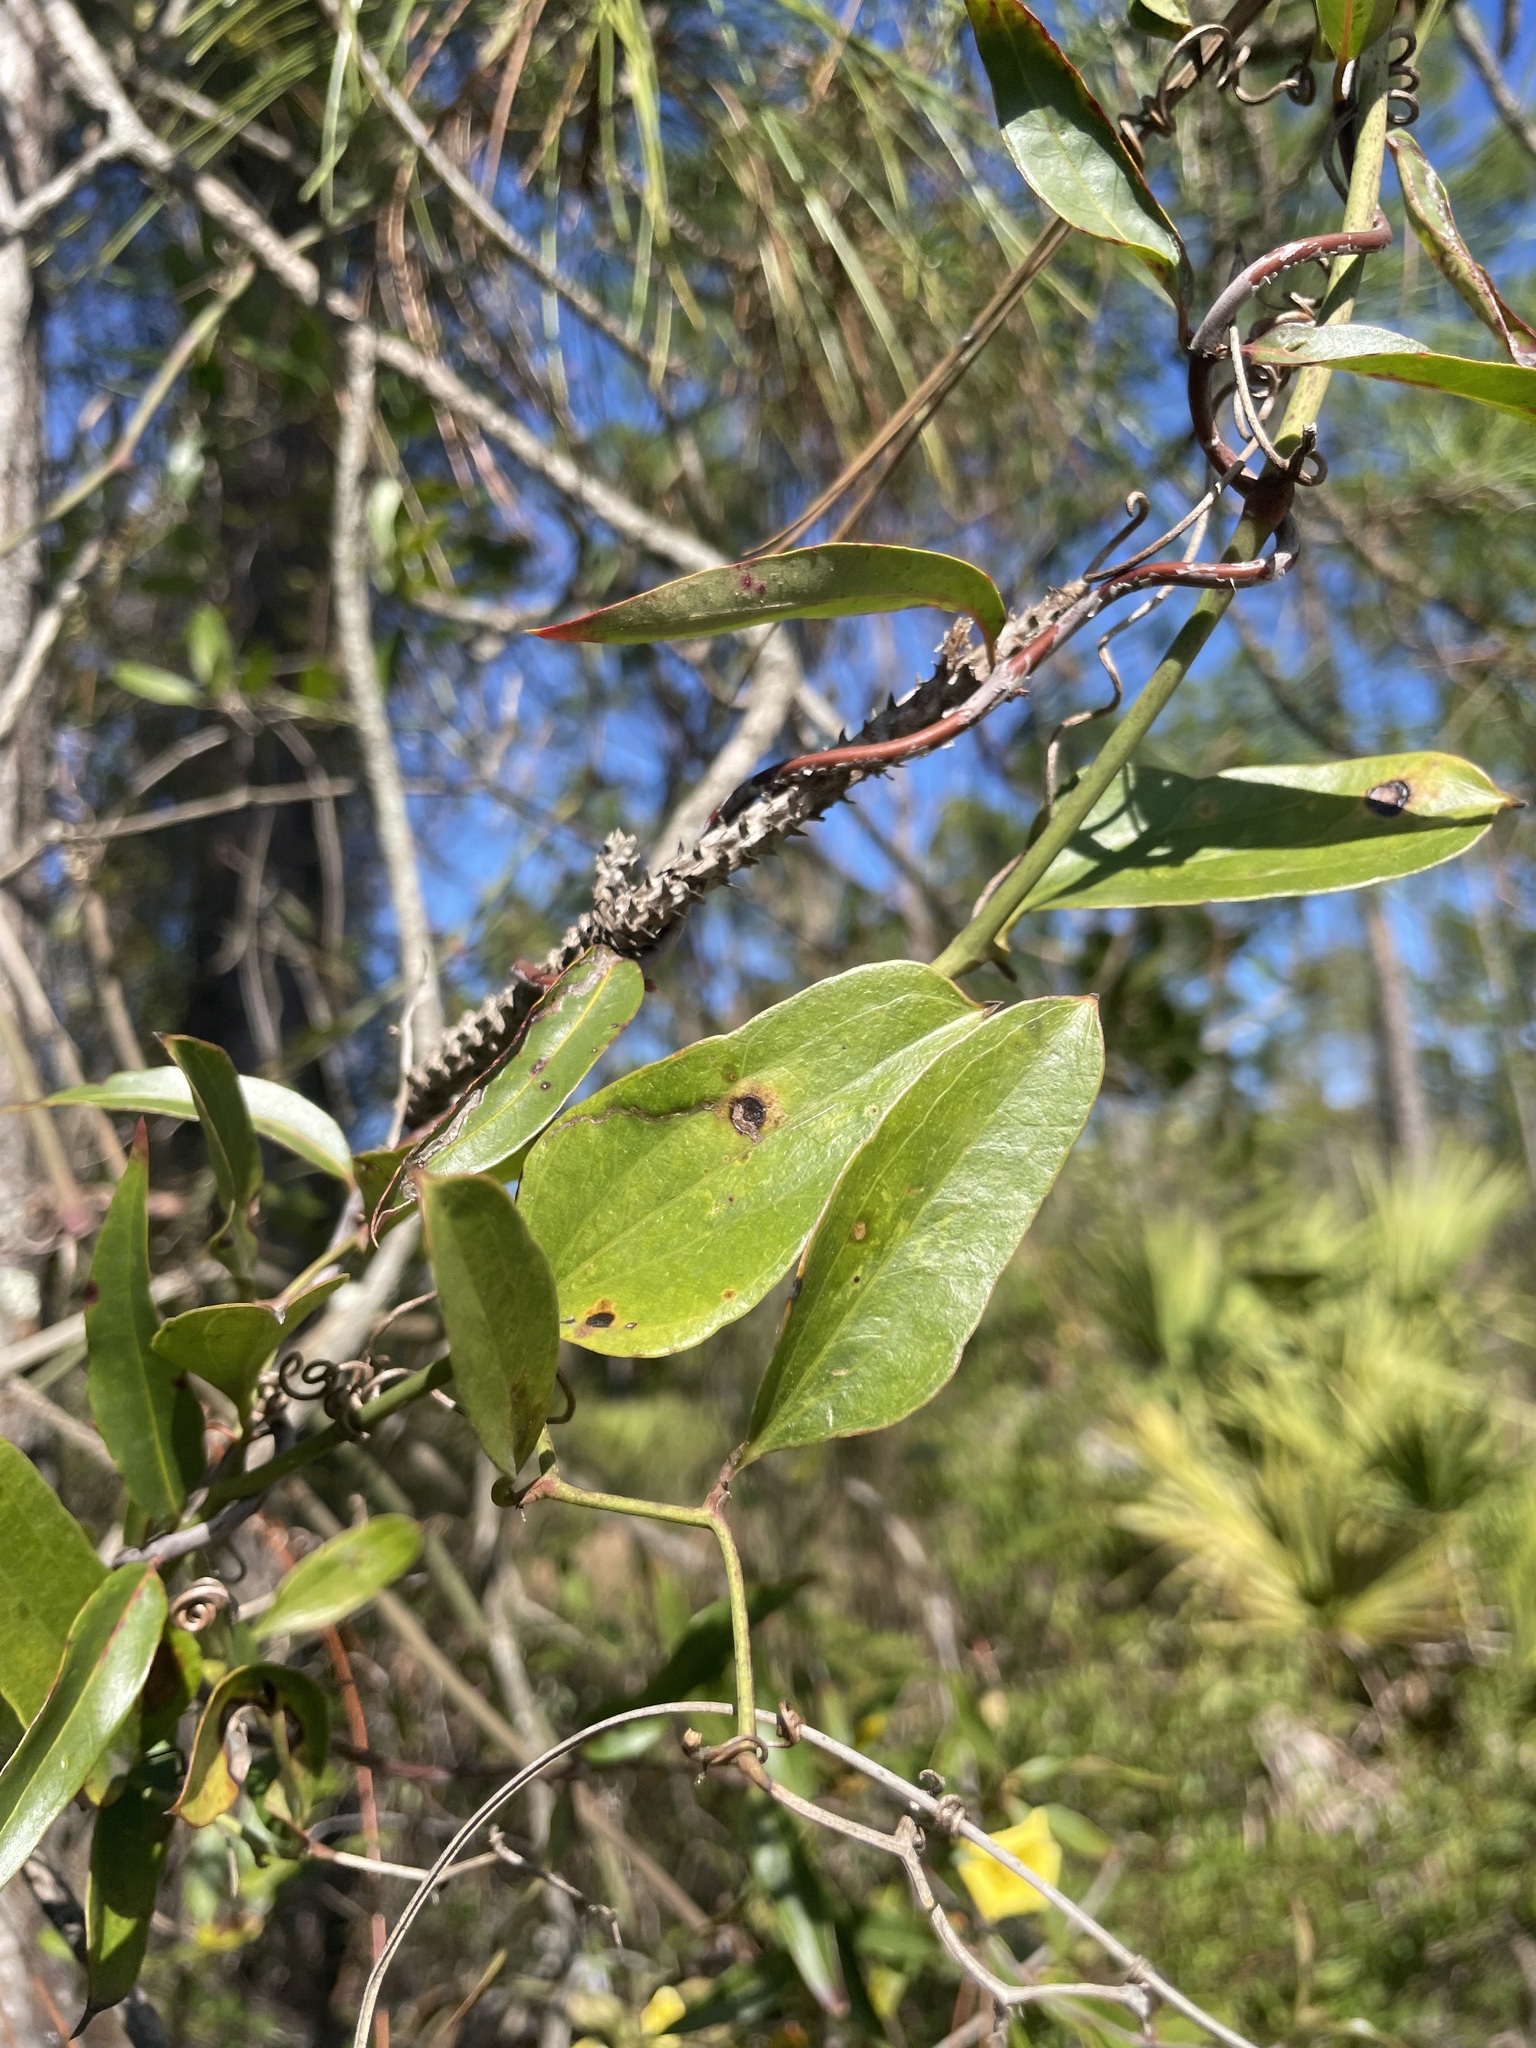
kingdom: Plantae
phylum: Tracheophyta
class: Liliopsida
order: Liliales
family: Smilacaceae
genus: Smilax
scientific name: Smilax auriculata
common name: Wild bamboo
